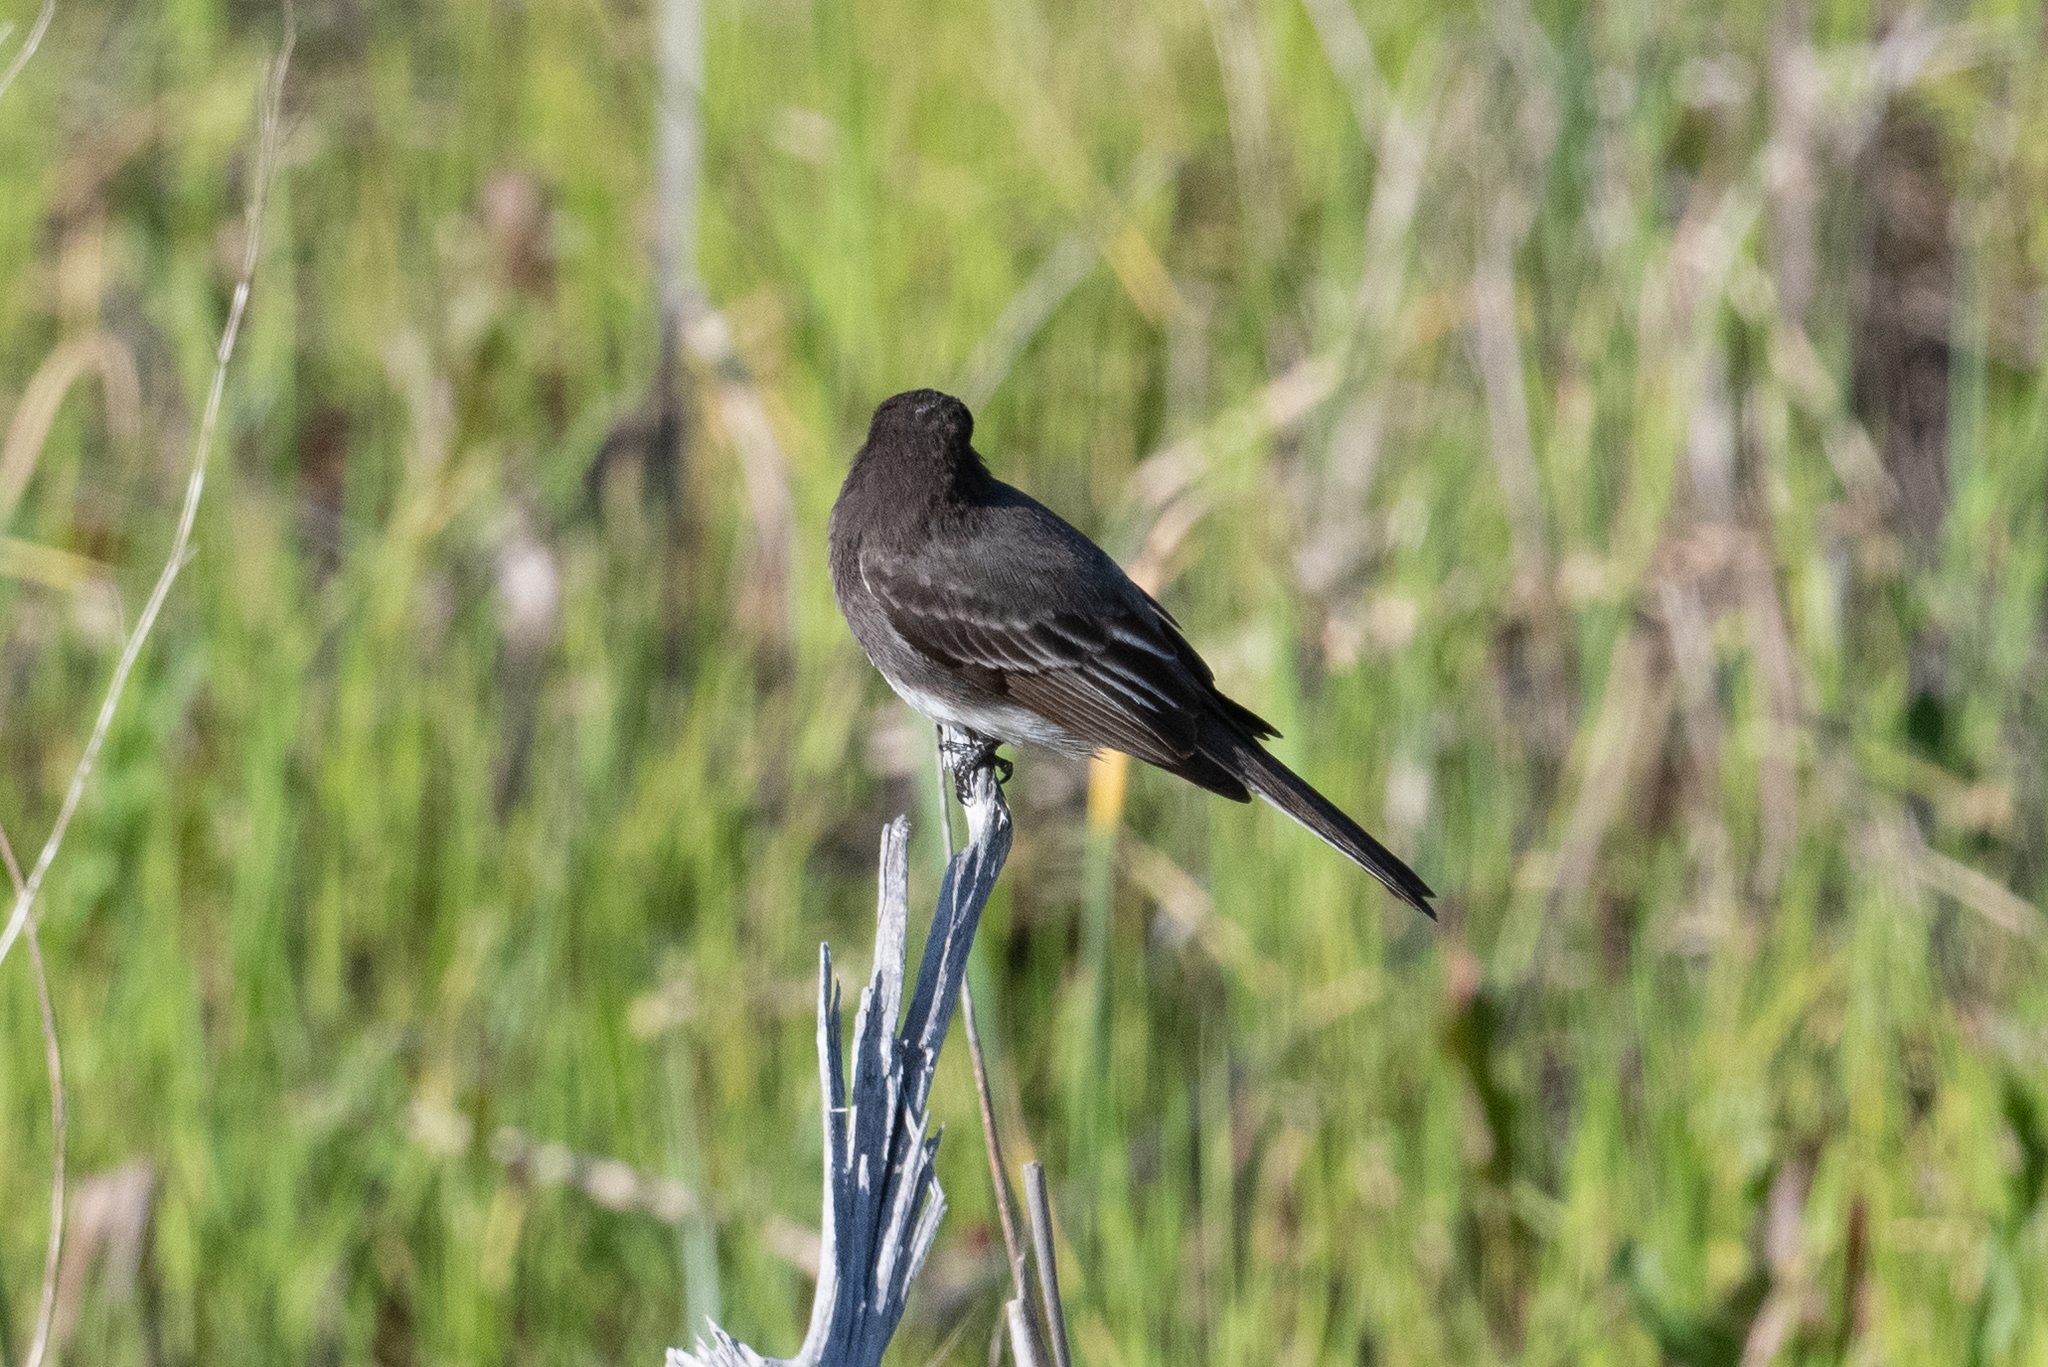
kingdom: Animalia
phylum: Chordata
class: Aves
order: Passeriformes
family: Tyrannidae
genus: Sayornis
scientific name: Sayornis nigricans
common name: Black phoebe
